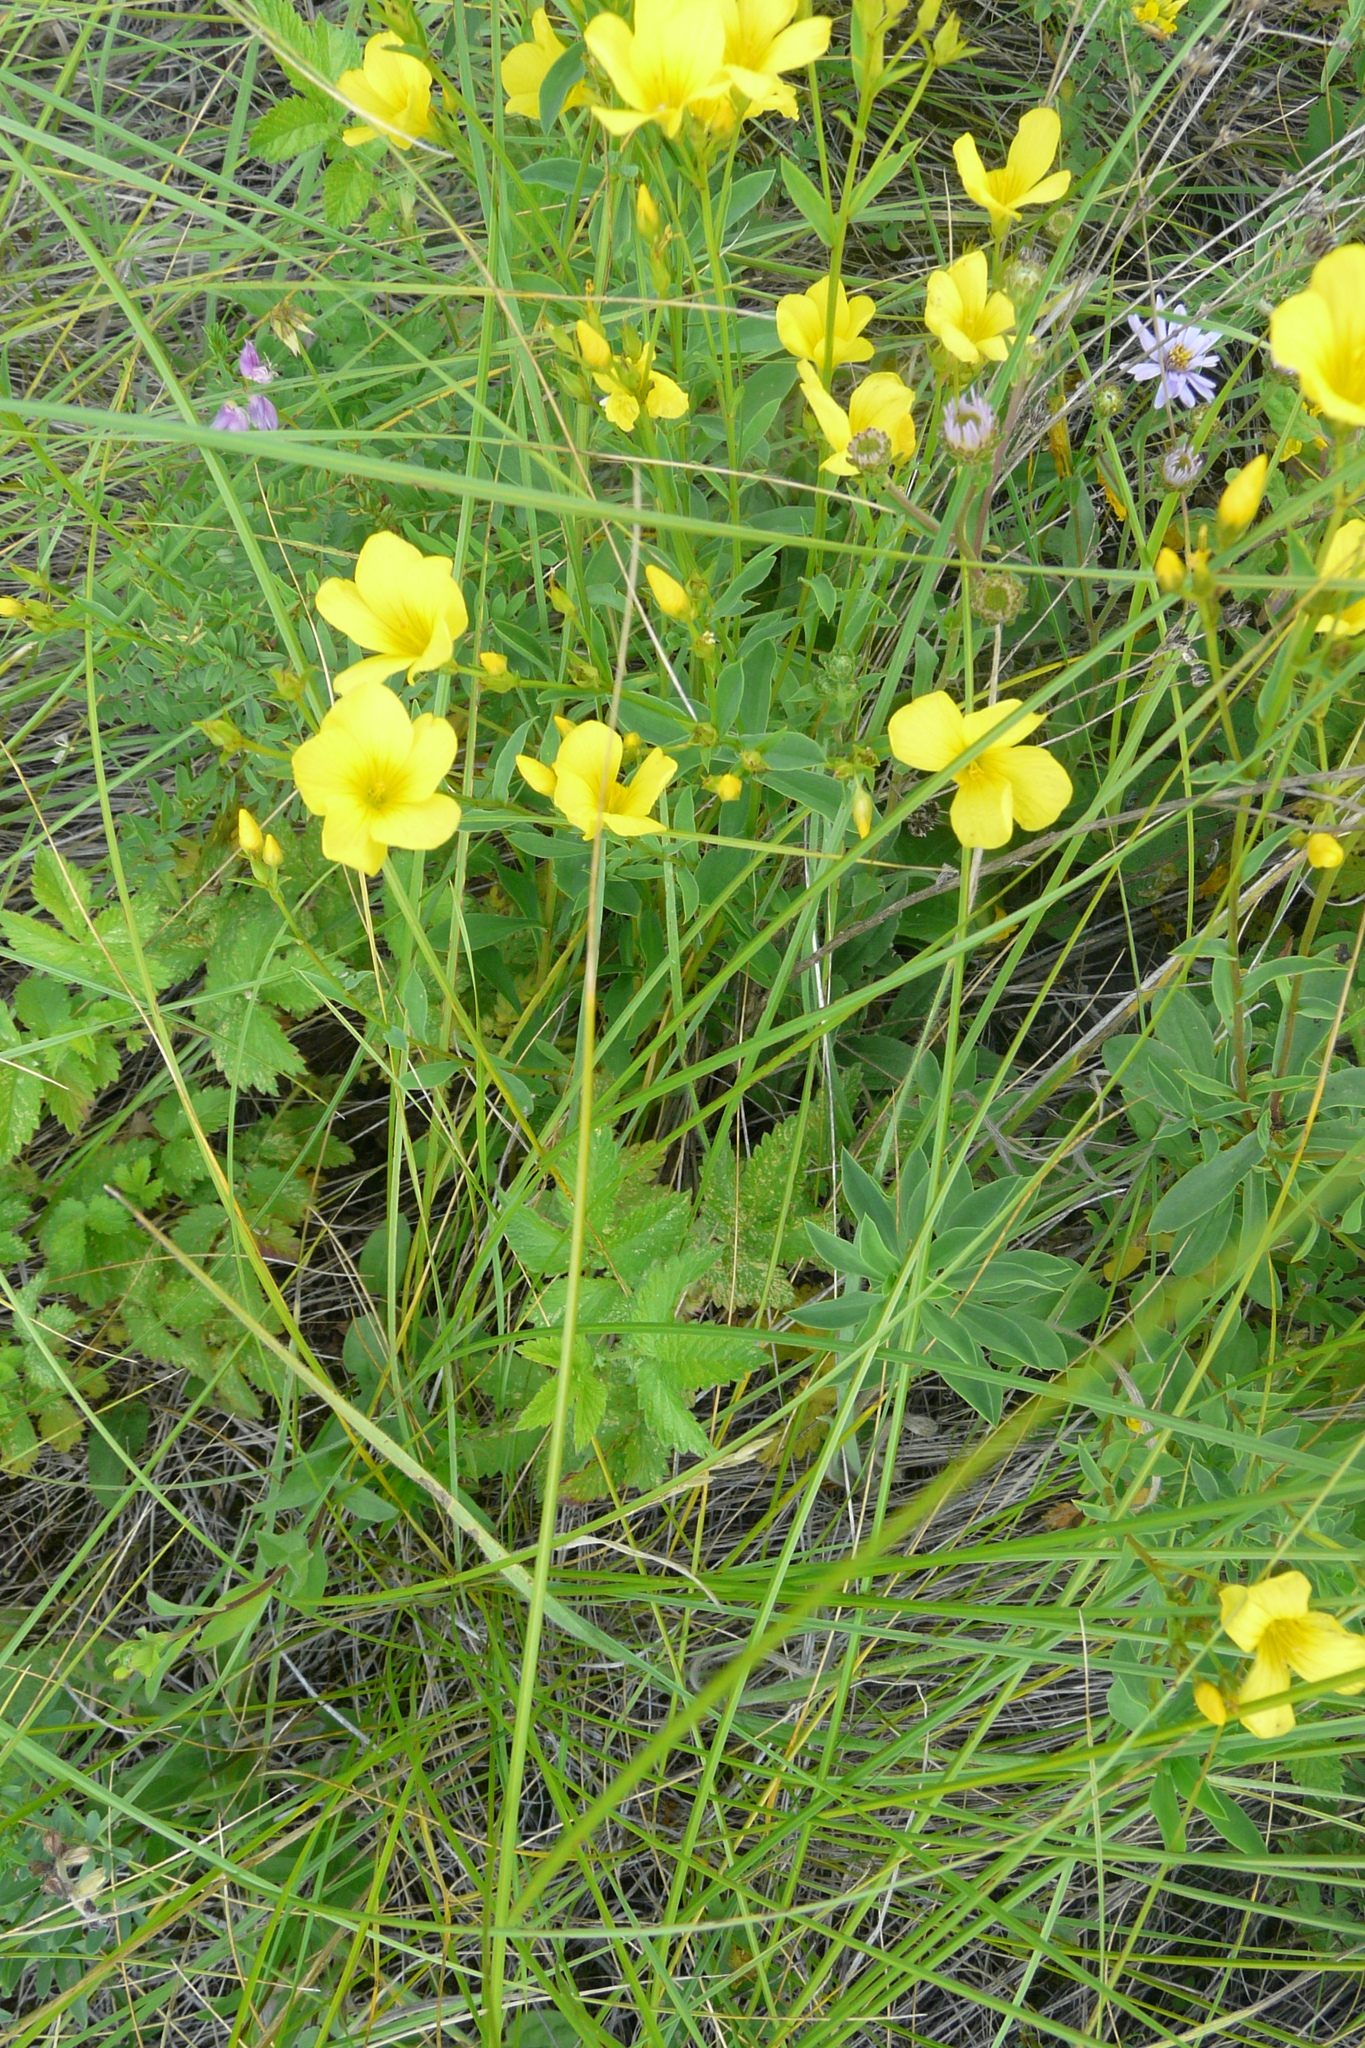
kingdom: Plantae
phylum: Tracheophyta
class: Magnoliopsida
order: Malpighiales
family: Linaceae
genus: Linum
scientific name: Linum flavum
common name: Yellow flax
